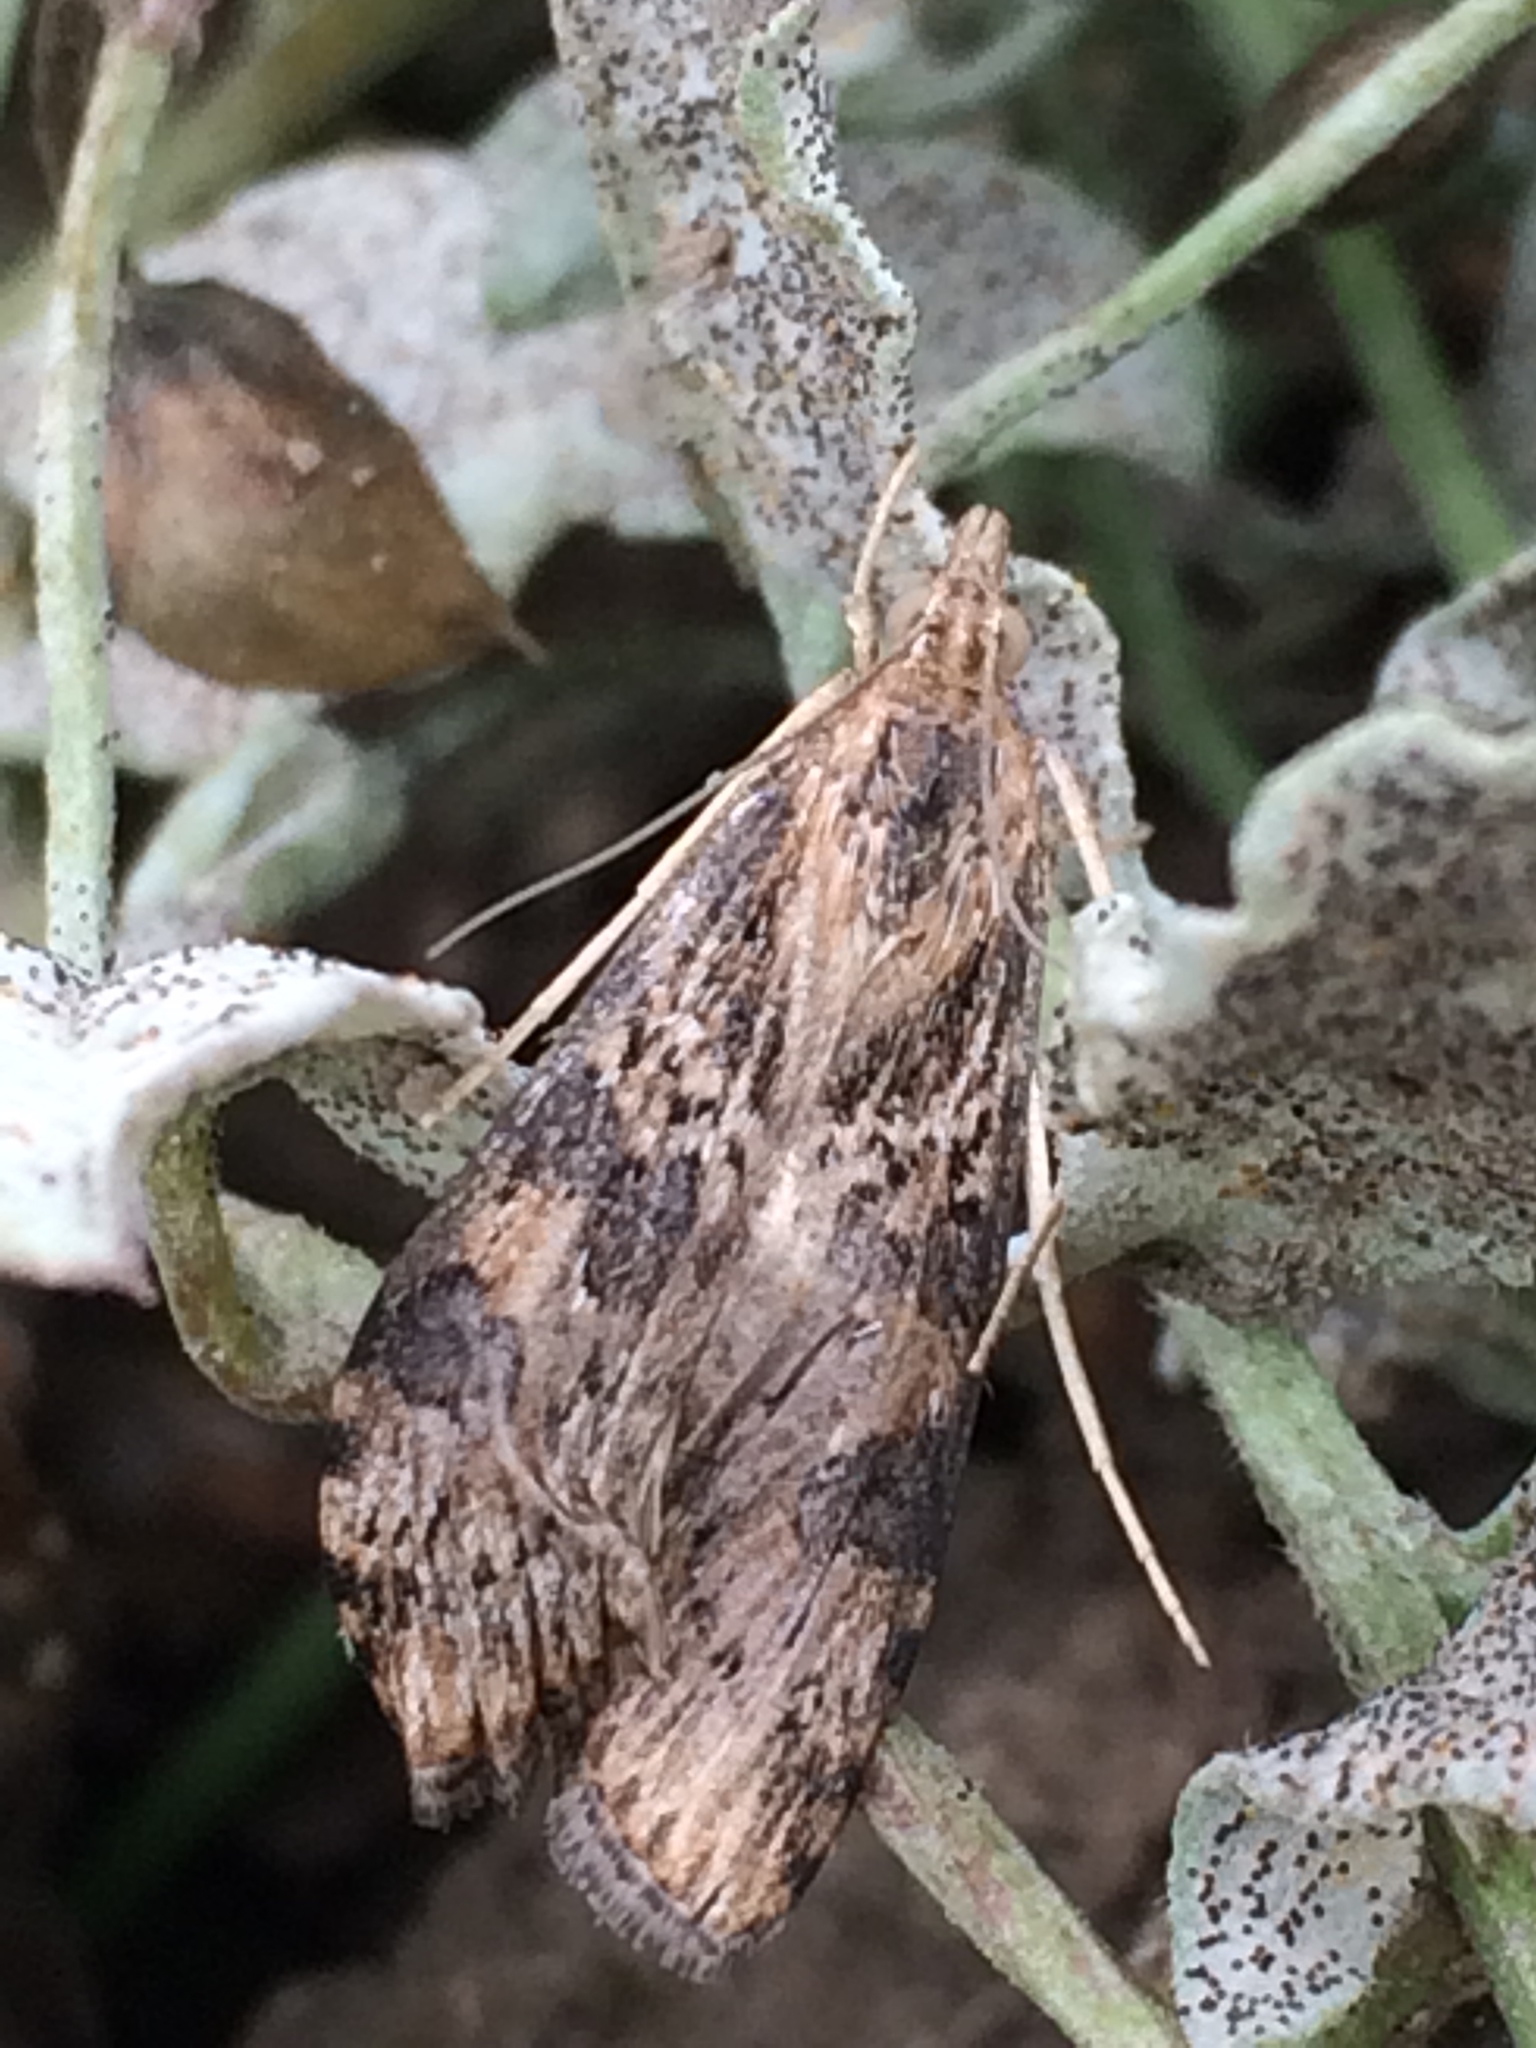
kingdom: Animalia
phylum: Arthropoda
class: Insecta
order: Lepidoptera
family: Crambidae
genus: Nomophila
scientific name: Nomophila nearctica
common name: American rush veneer
